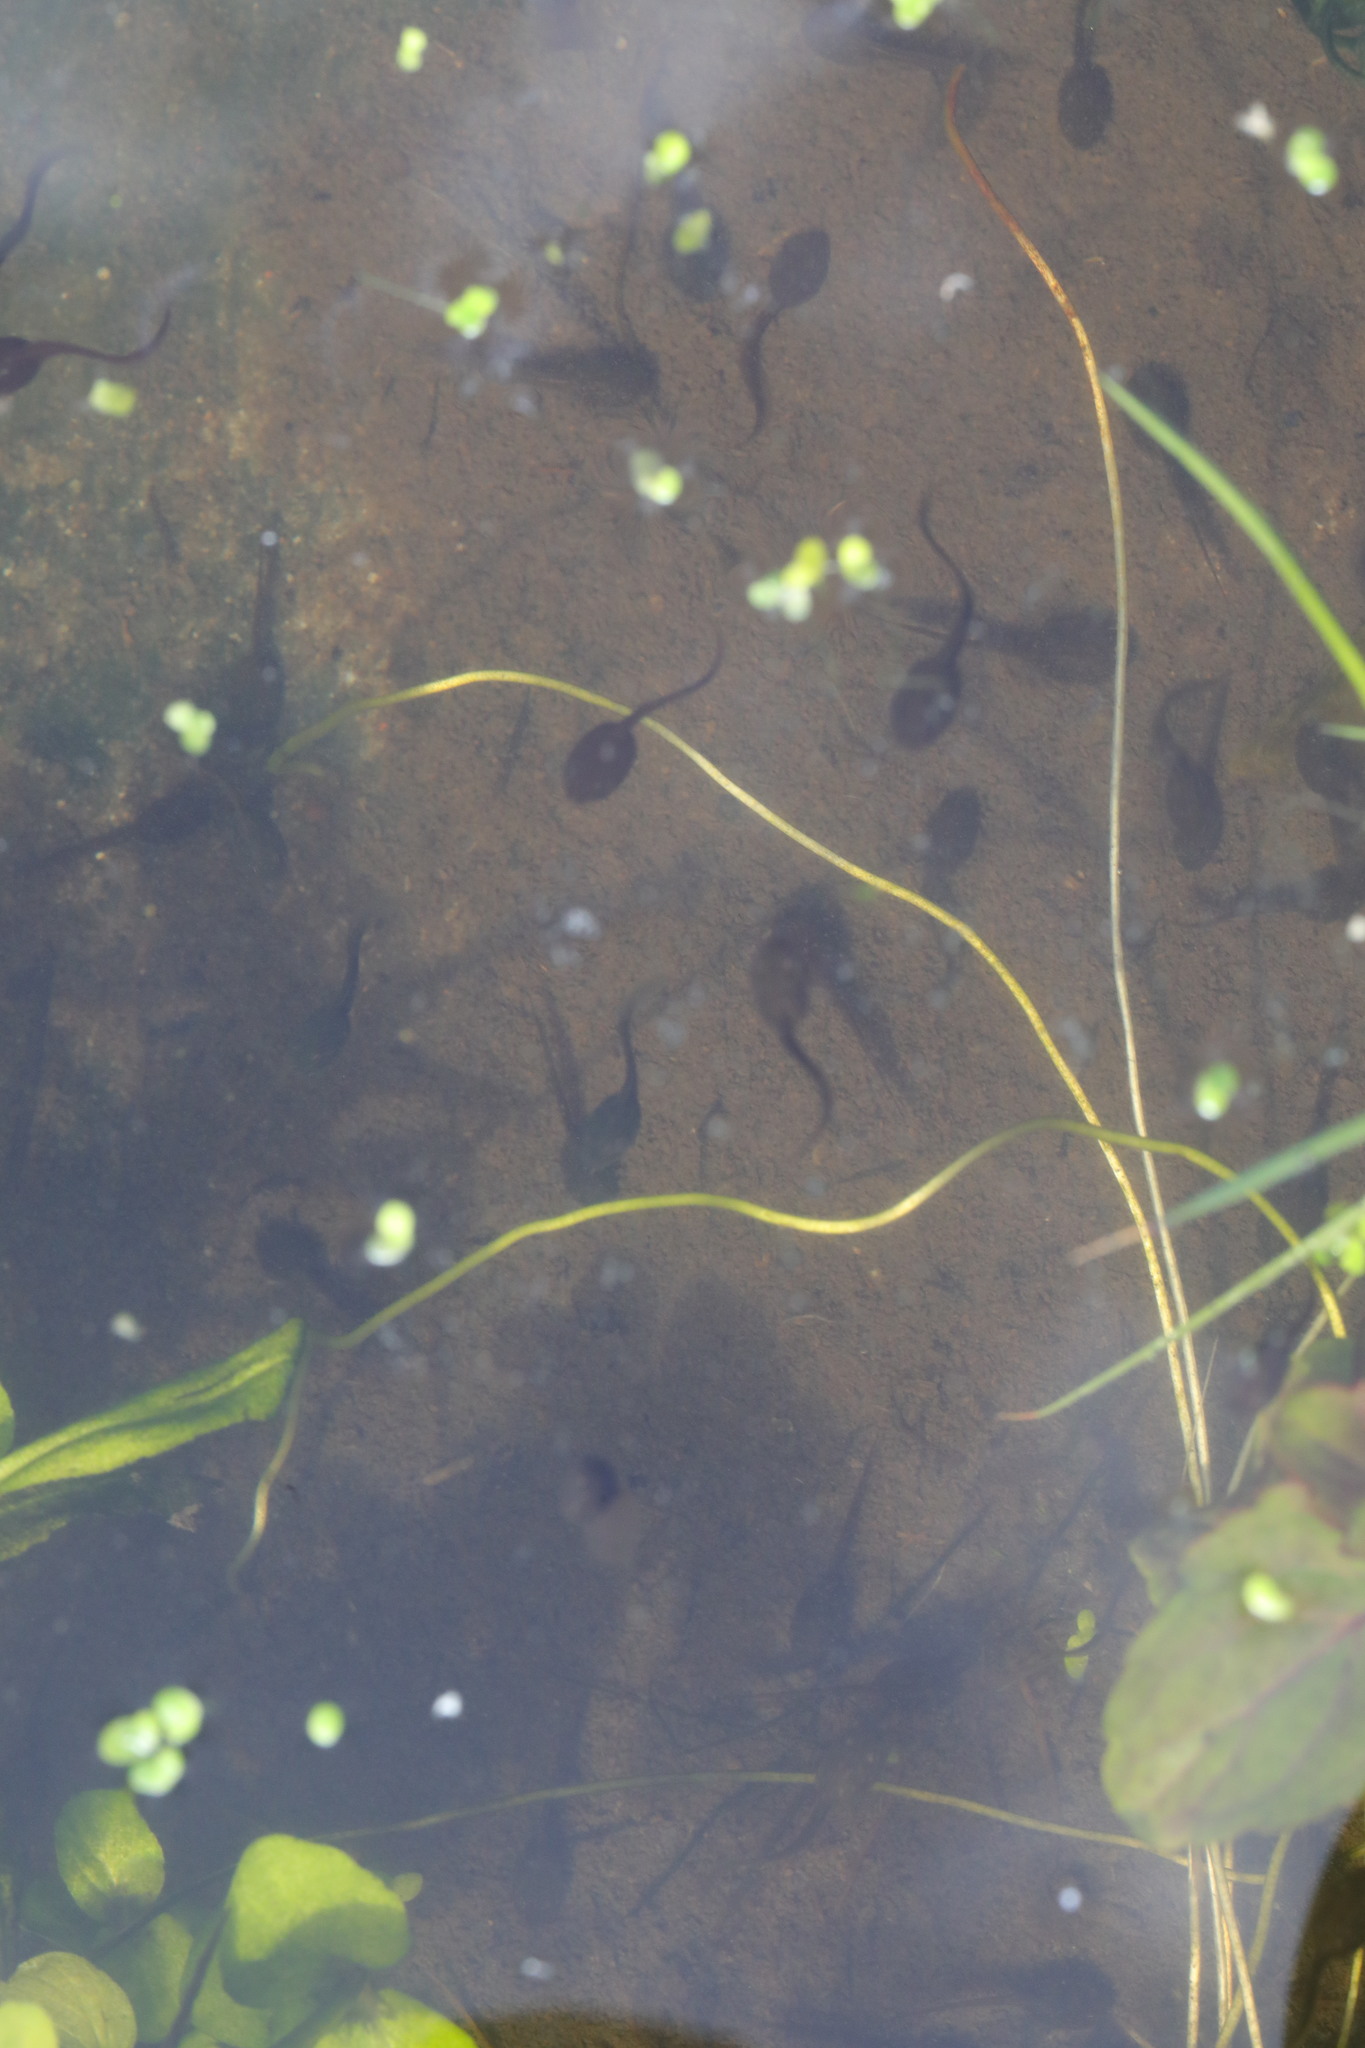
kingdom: Animalia
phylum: Chordata
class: Amphibia
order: Anura
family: Ranidae
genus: Rana
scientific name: Rana temporaria
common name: Common frog
